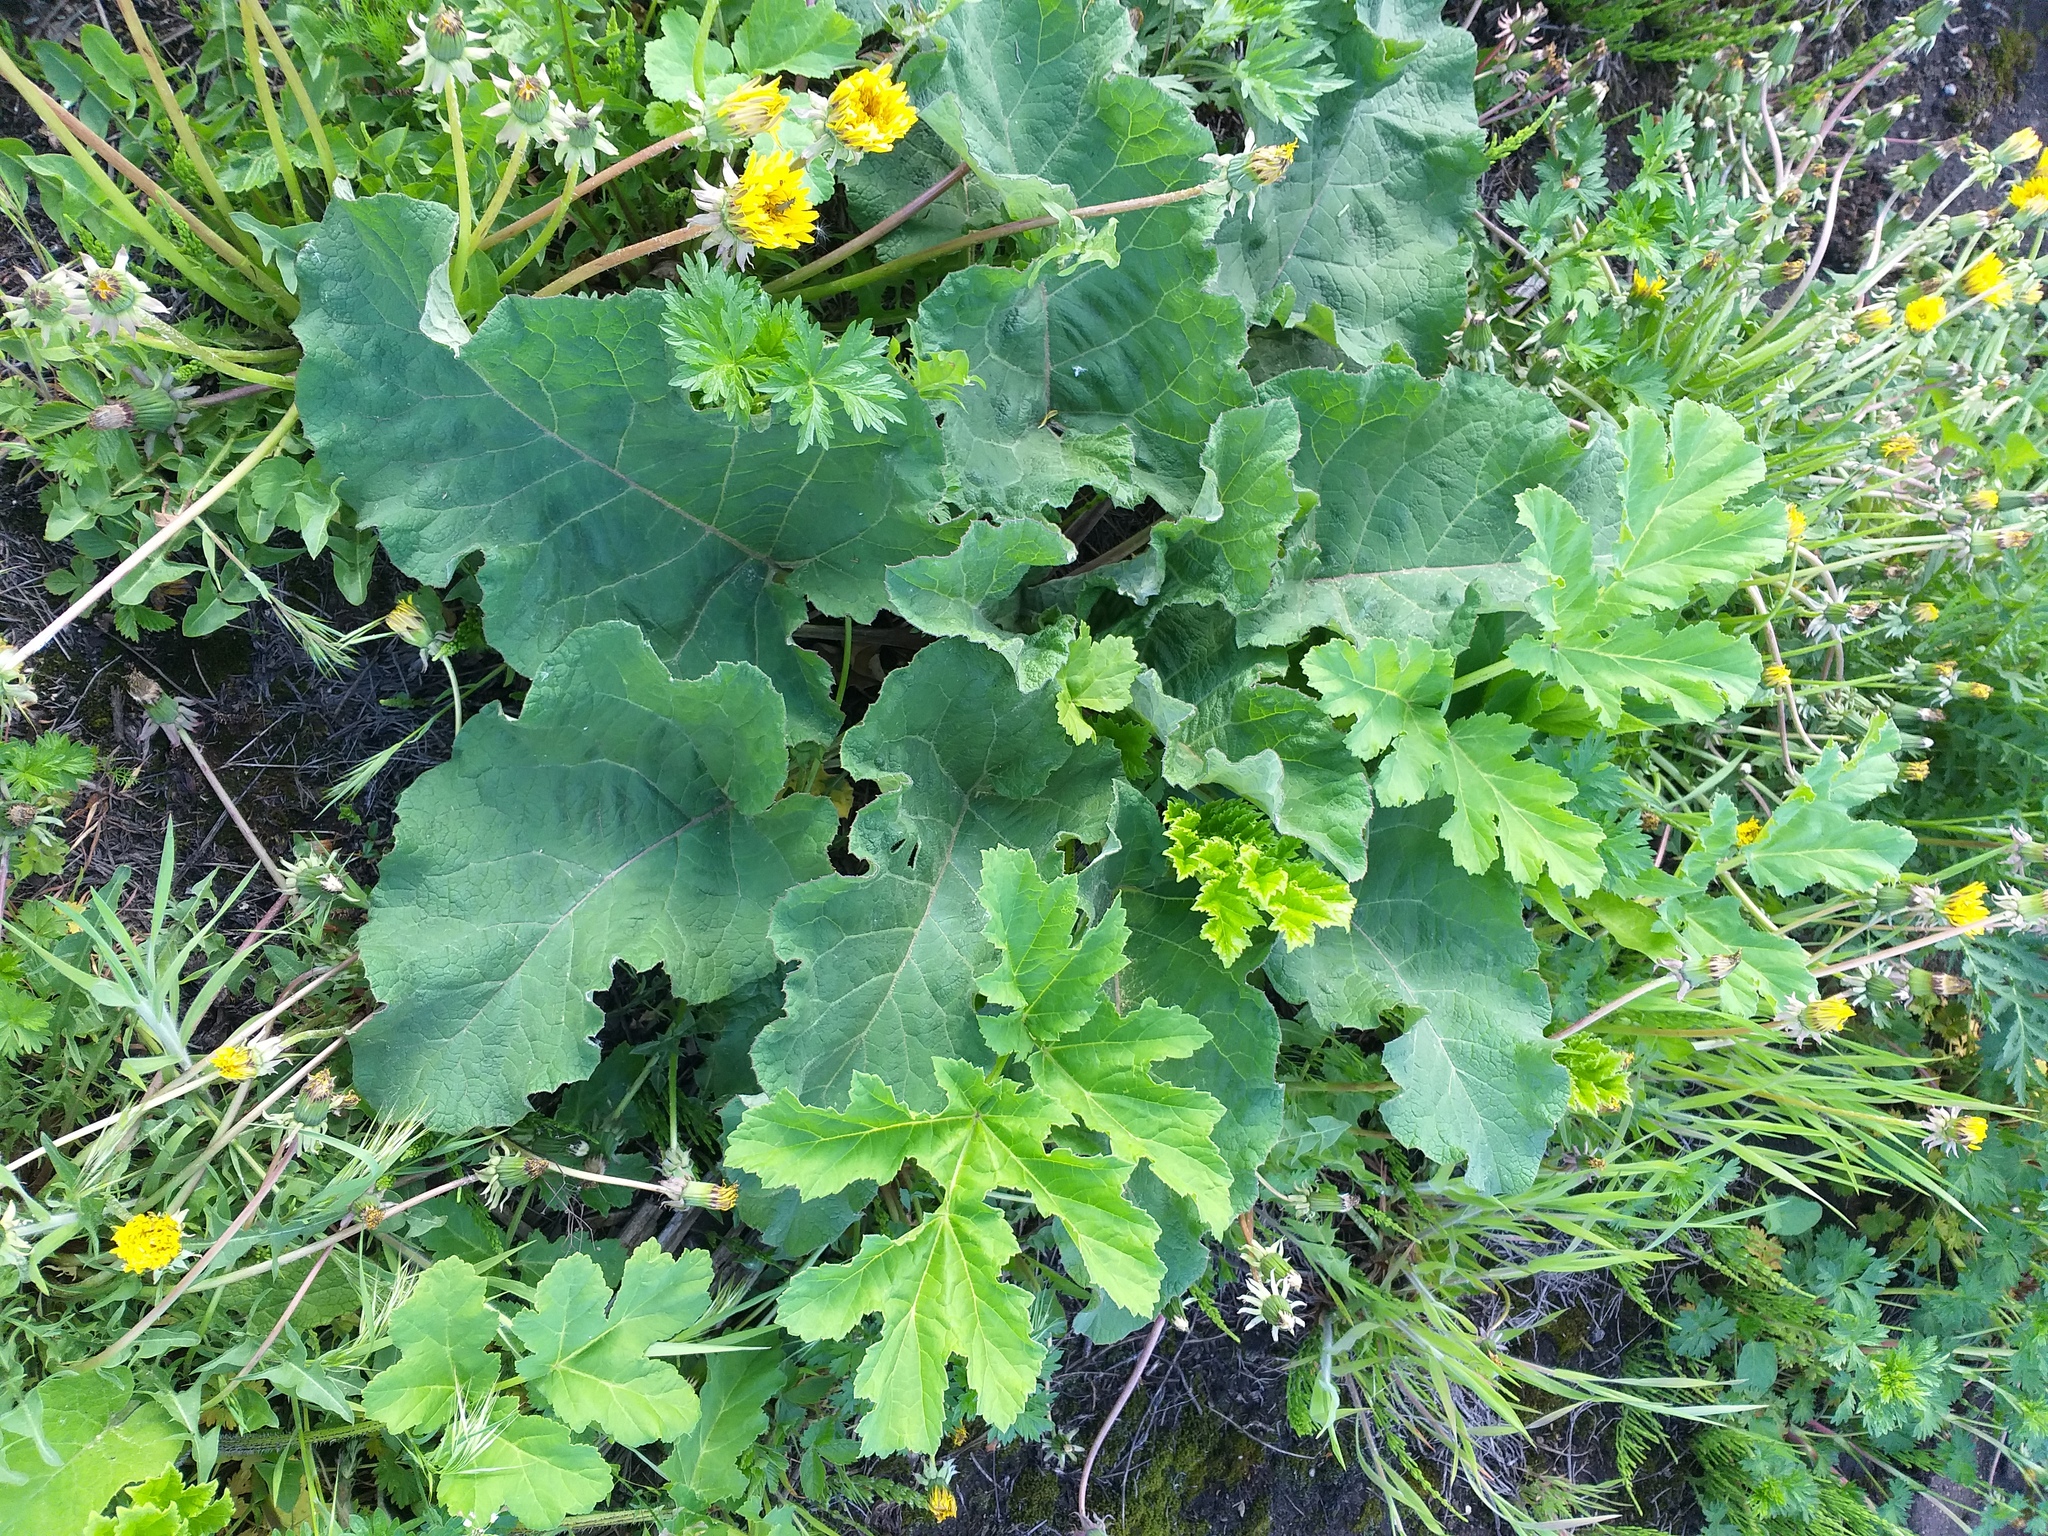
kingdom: Plantae
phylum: Tracheophyta
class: Magnoliopsida
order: Asterales
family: Asteraceae
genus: Arctium
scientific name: Arctium
